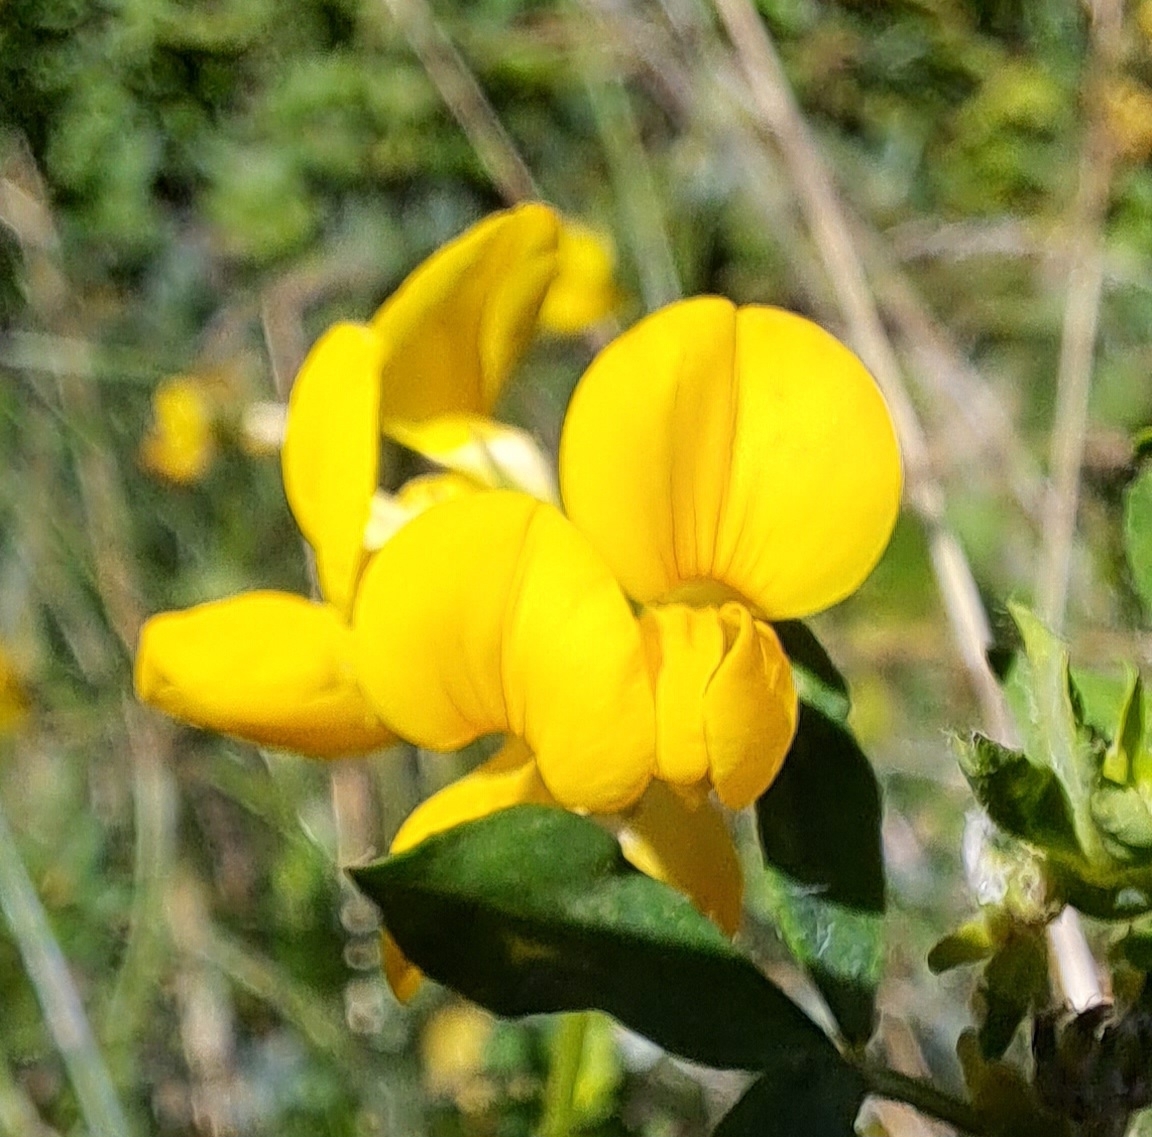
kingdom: Plantae
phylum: Tracheophyta
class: Magnoliopsida
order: Fabales
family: Fabaceae
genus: Lotus
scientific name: Lotus corniculatus
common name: Common bird's-foot-trefoil
